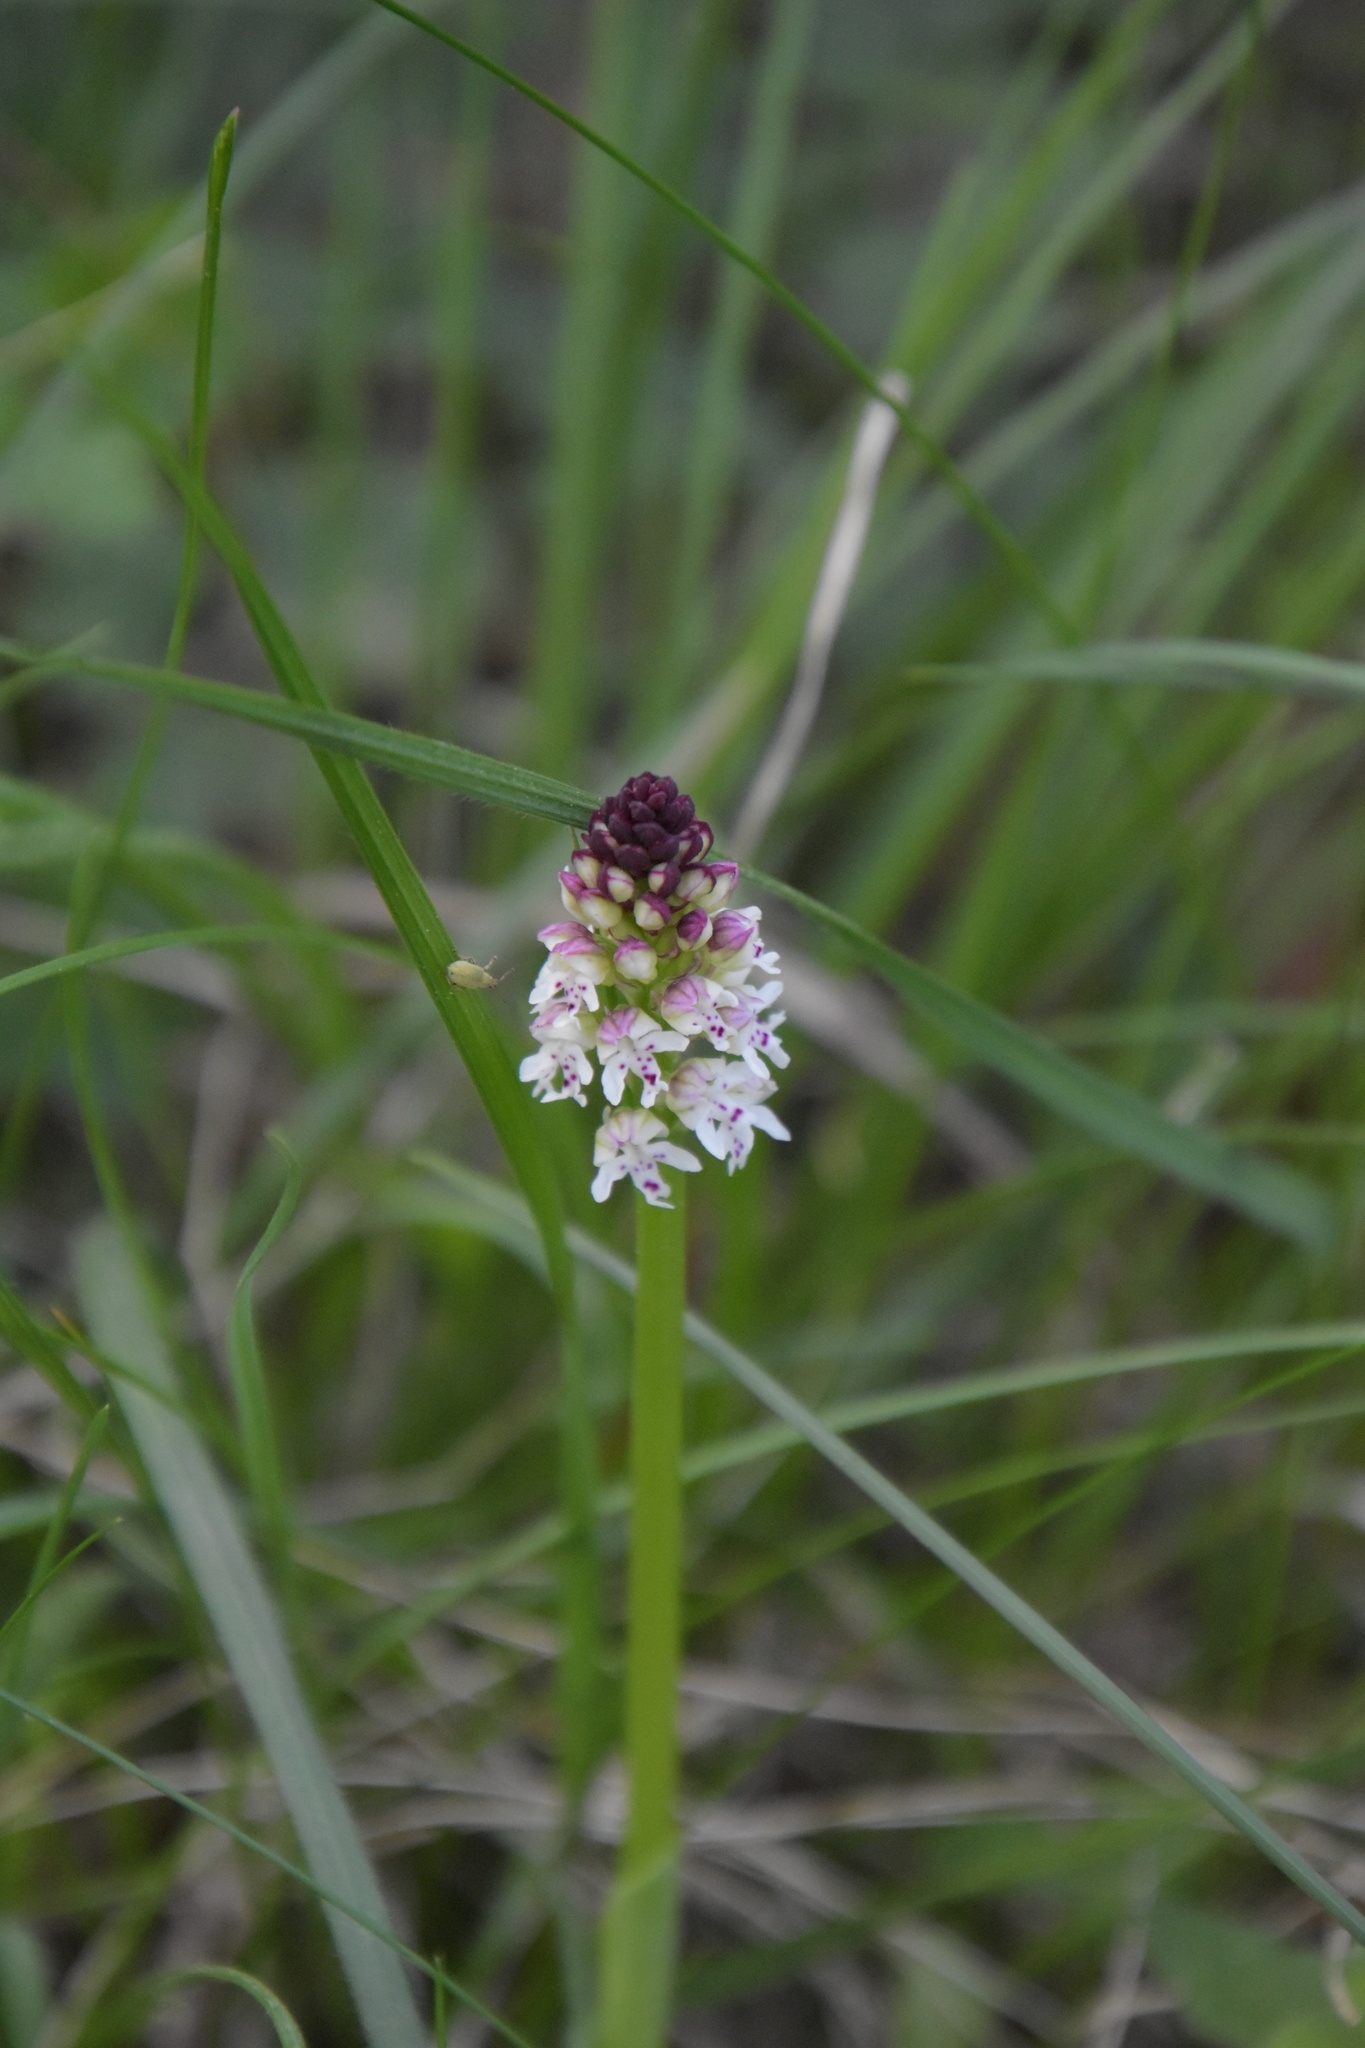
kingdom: Plantae
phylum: Tracheophyta
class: Liliopsida
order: Asparagales
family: Orchidaceae
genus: Neotinea
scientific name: Neotinea ustulata
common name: Burnt orchid
